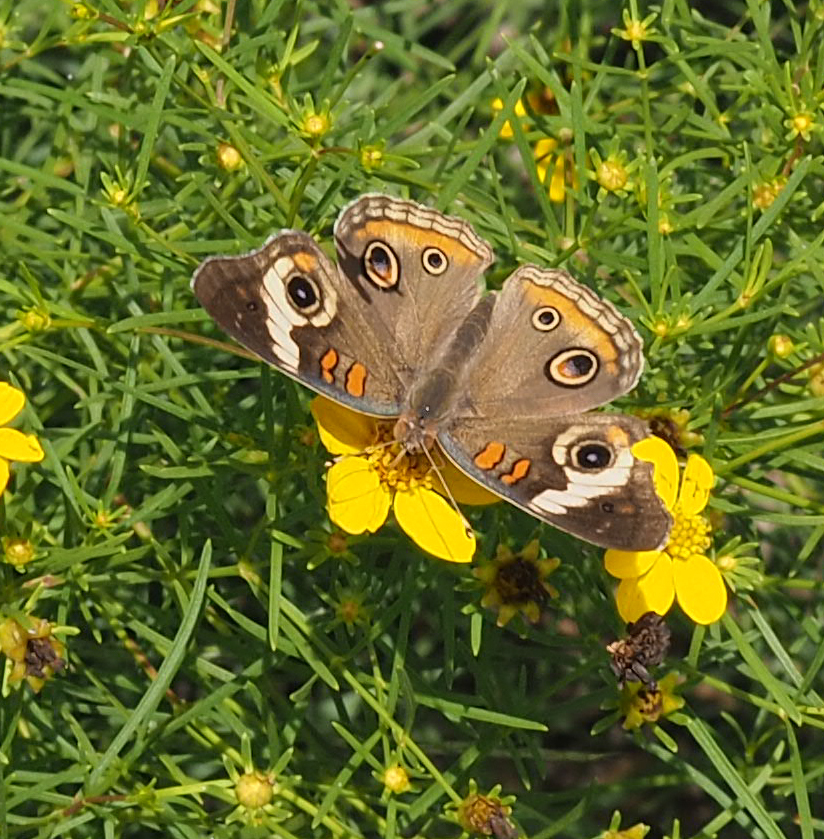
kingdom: Animalia
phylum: Arthropoda
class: Insecta
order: Lepidoptera
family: Nymphalidae
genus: Junonia
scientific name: Junonia coenia
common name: Common buckeye
